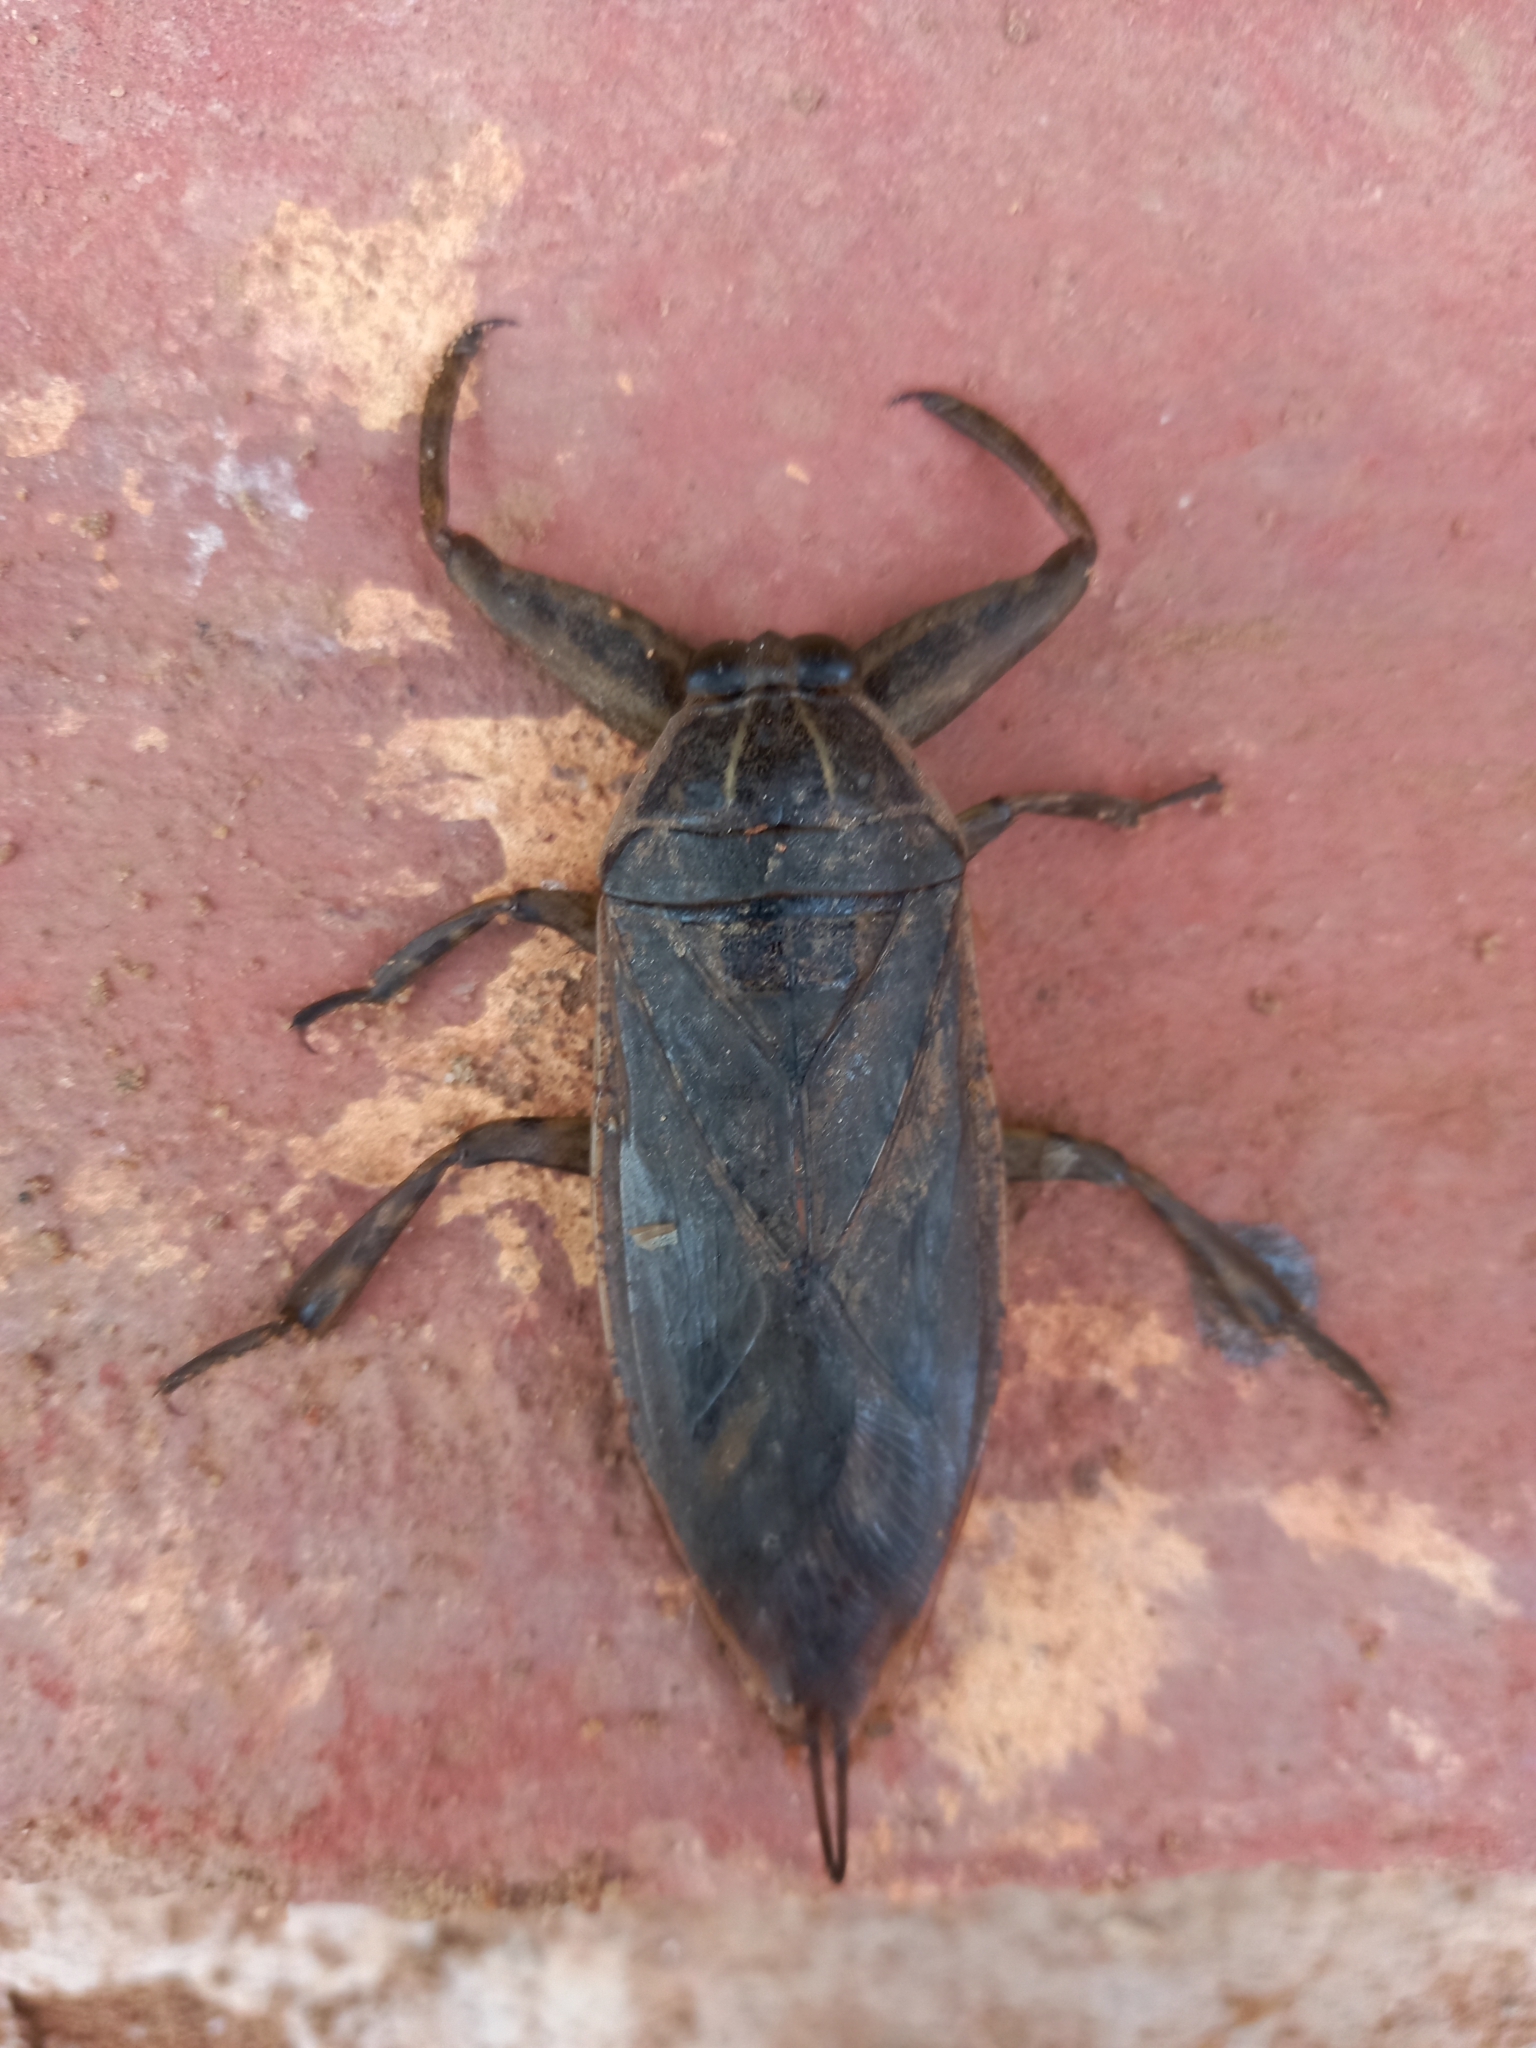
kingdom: Animalia
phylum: Arthropoda
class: Insecta
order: Hemiptera
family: Belostomatidae
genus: Lethocerus
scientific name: Lethocerus cordofanus
